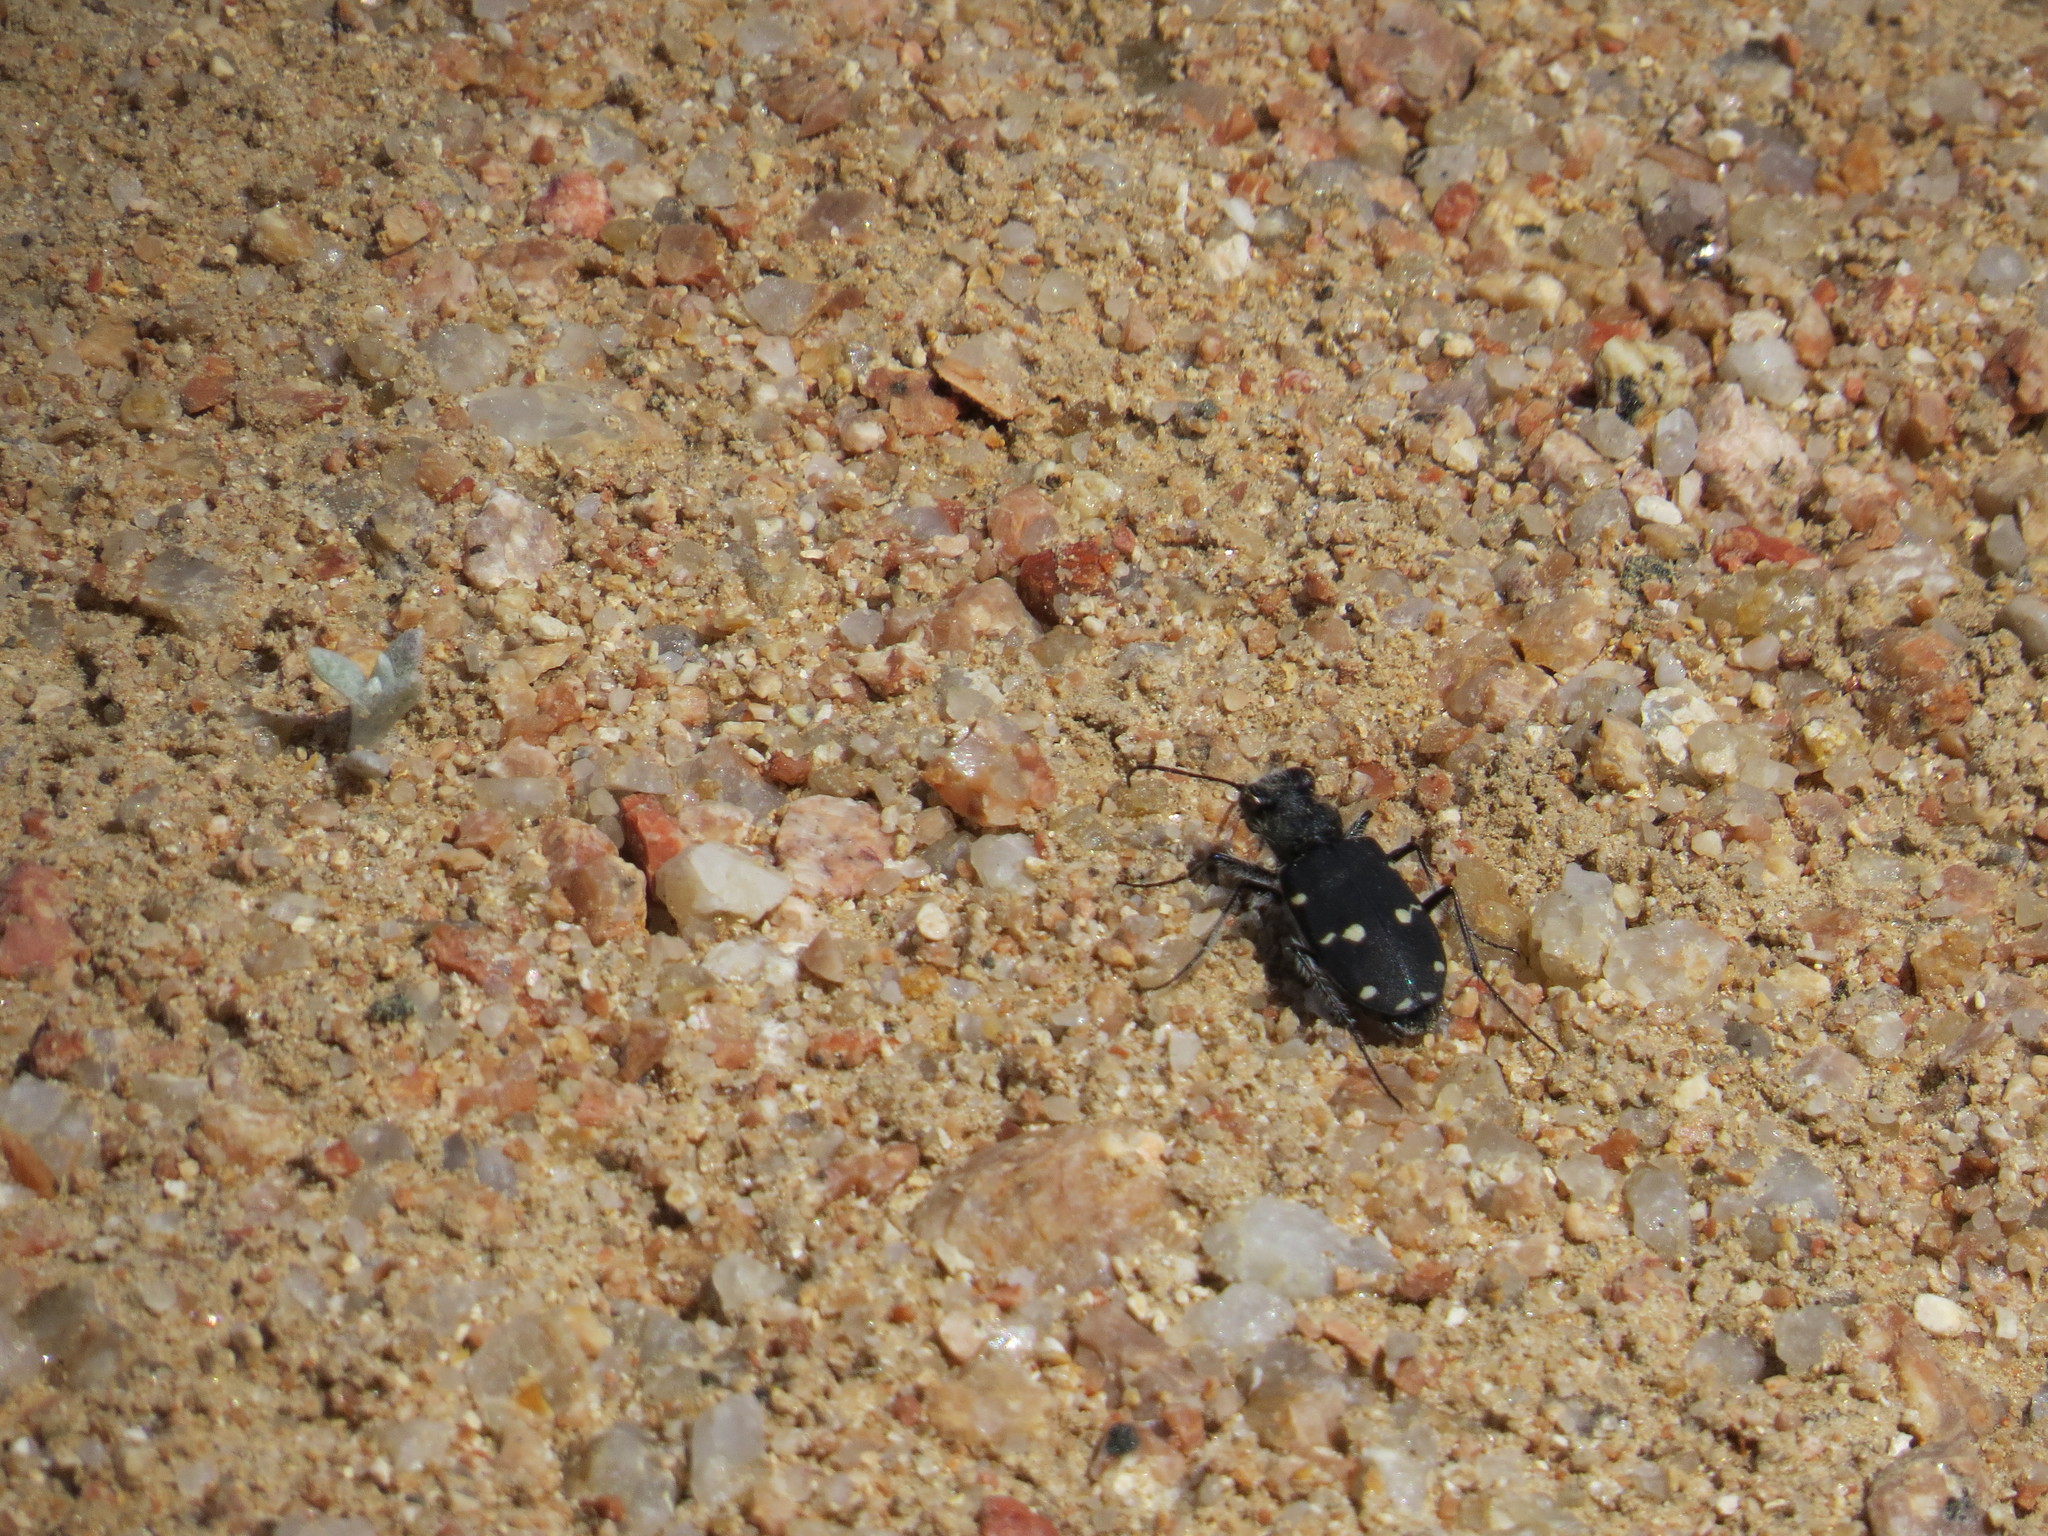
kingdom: Animalia
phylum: Arthropoda
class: Insecta
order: Coleoptera
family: Carabidae
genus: Cicindela
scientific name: Cicindela campestris
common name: Common tiger beetle
